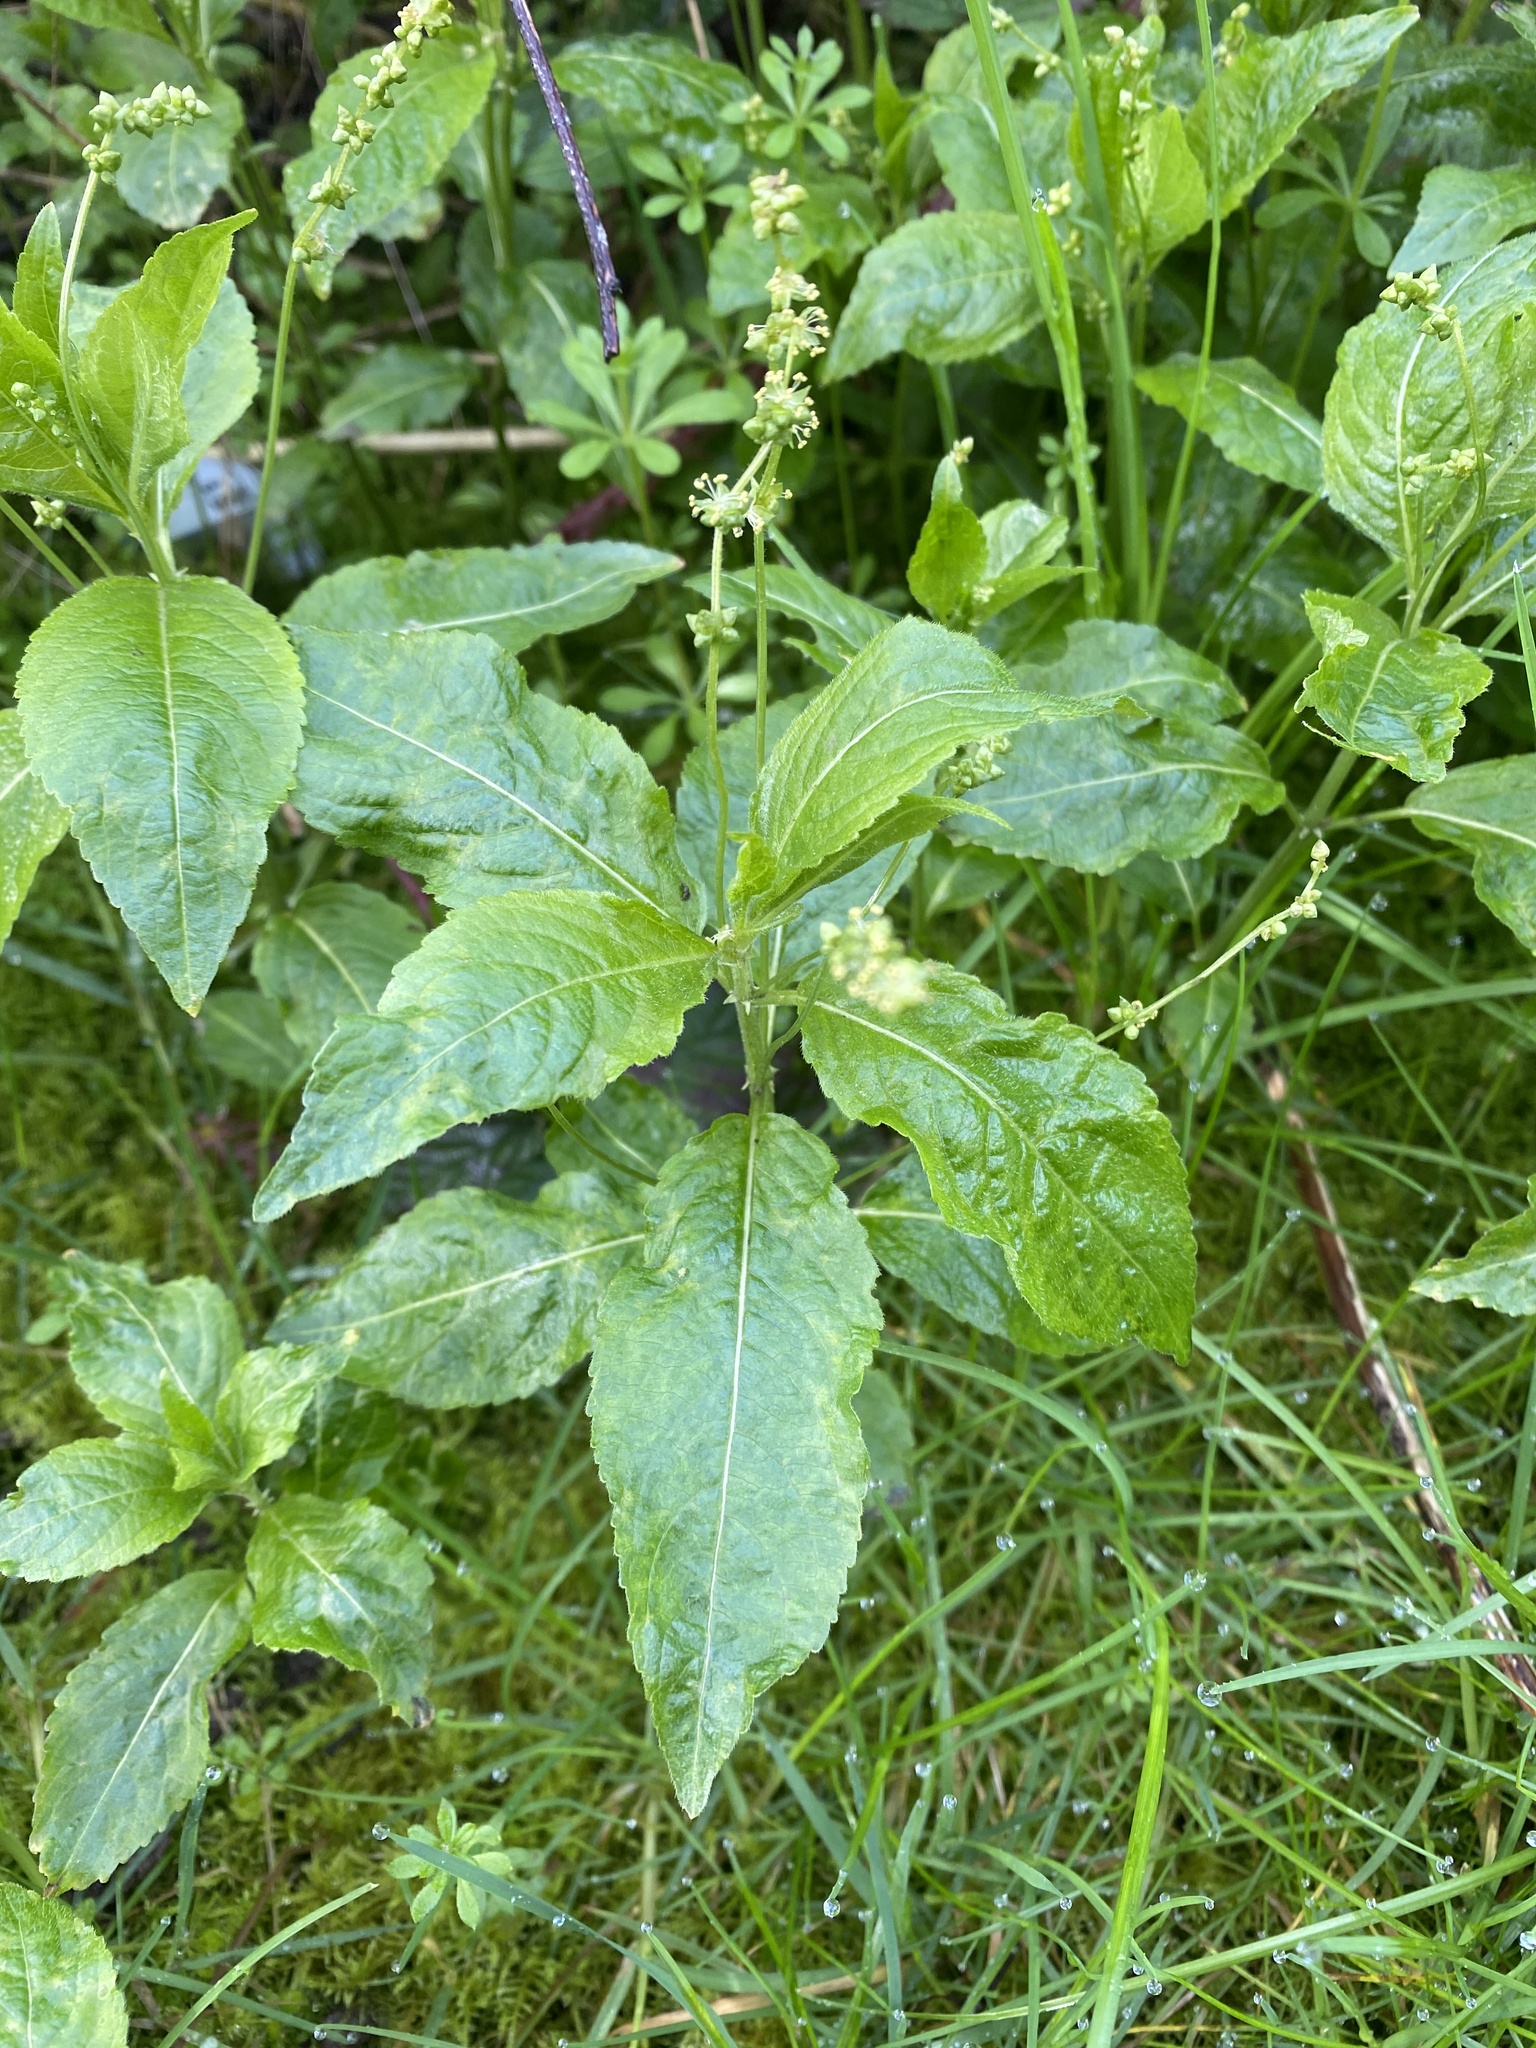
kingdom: Plantae
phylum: Tracheophyta
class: Magnoliopsida
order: Malpighiales
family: Euphorbiaceae
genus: Mercurialis
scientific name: Mercurialis perennis
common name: Dog mercury
